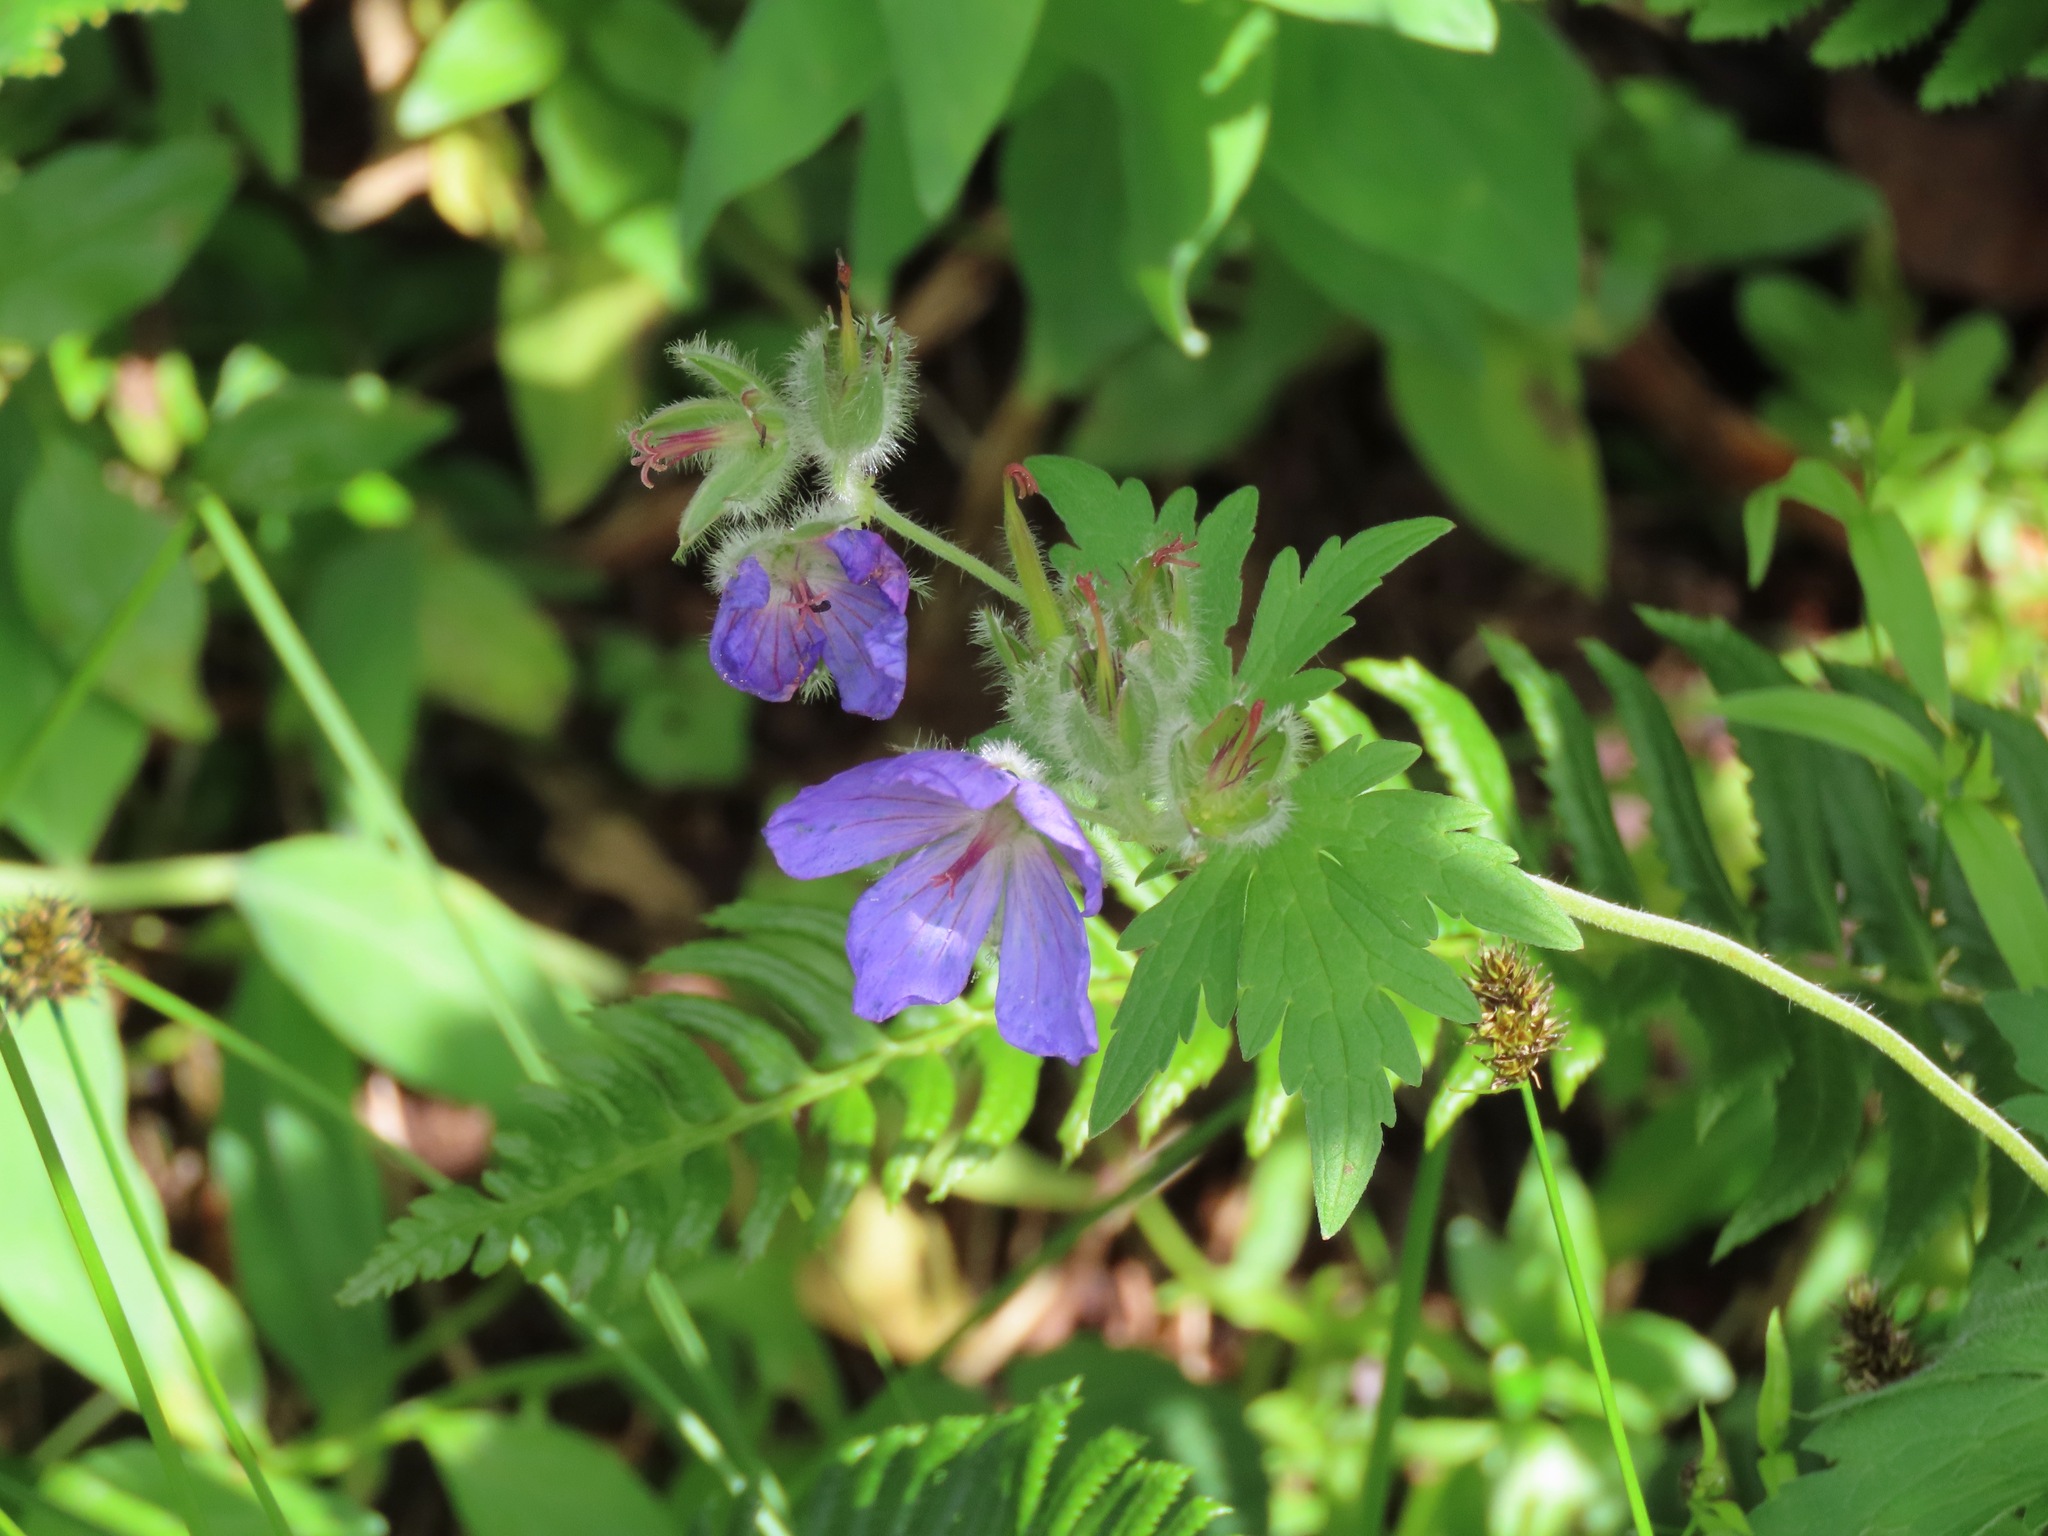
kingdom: Plantae
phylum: Tracheophyta
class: Magnoliopsida
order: Geraniales
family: Geraniaceae
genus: Geranium
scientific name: Geranium erianthum
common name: Northern crane's-bill
